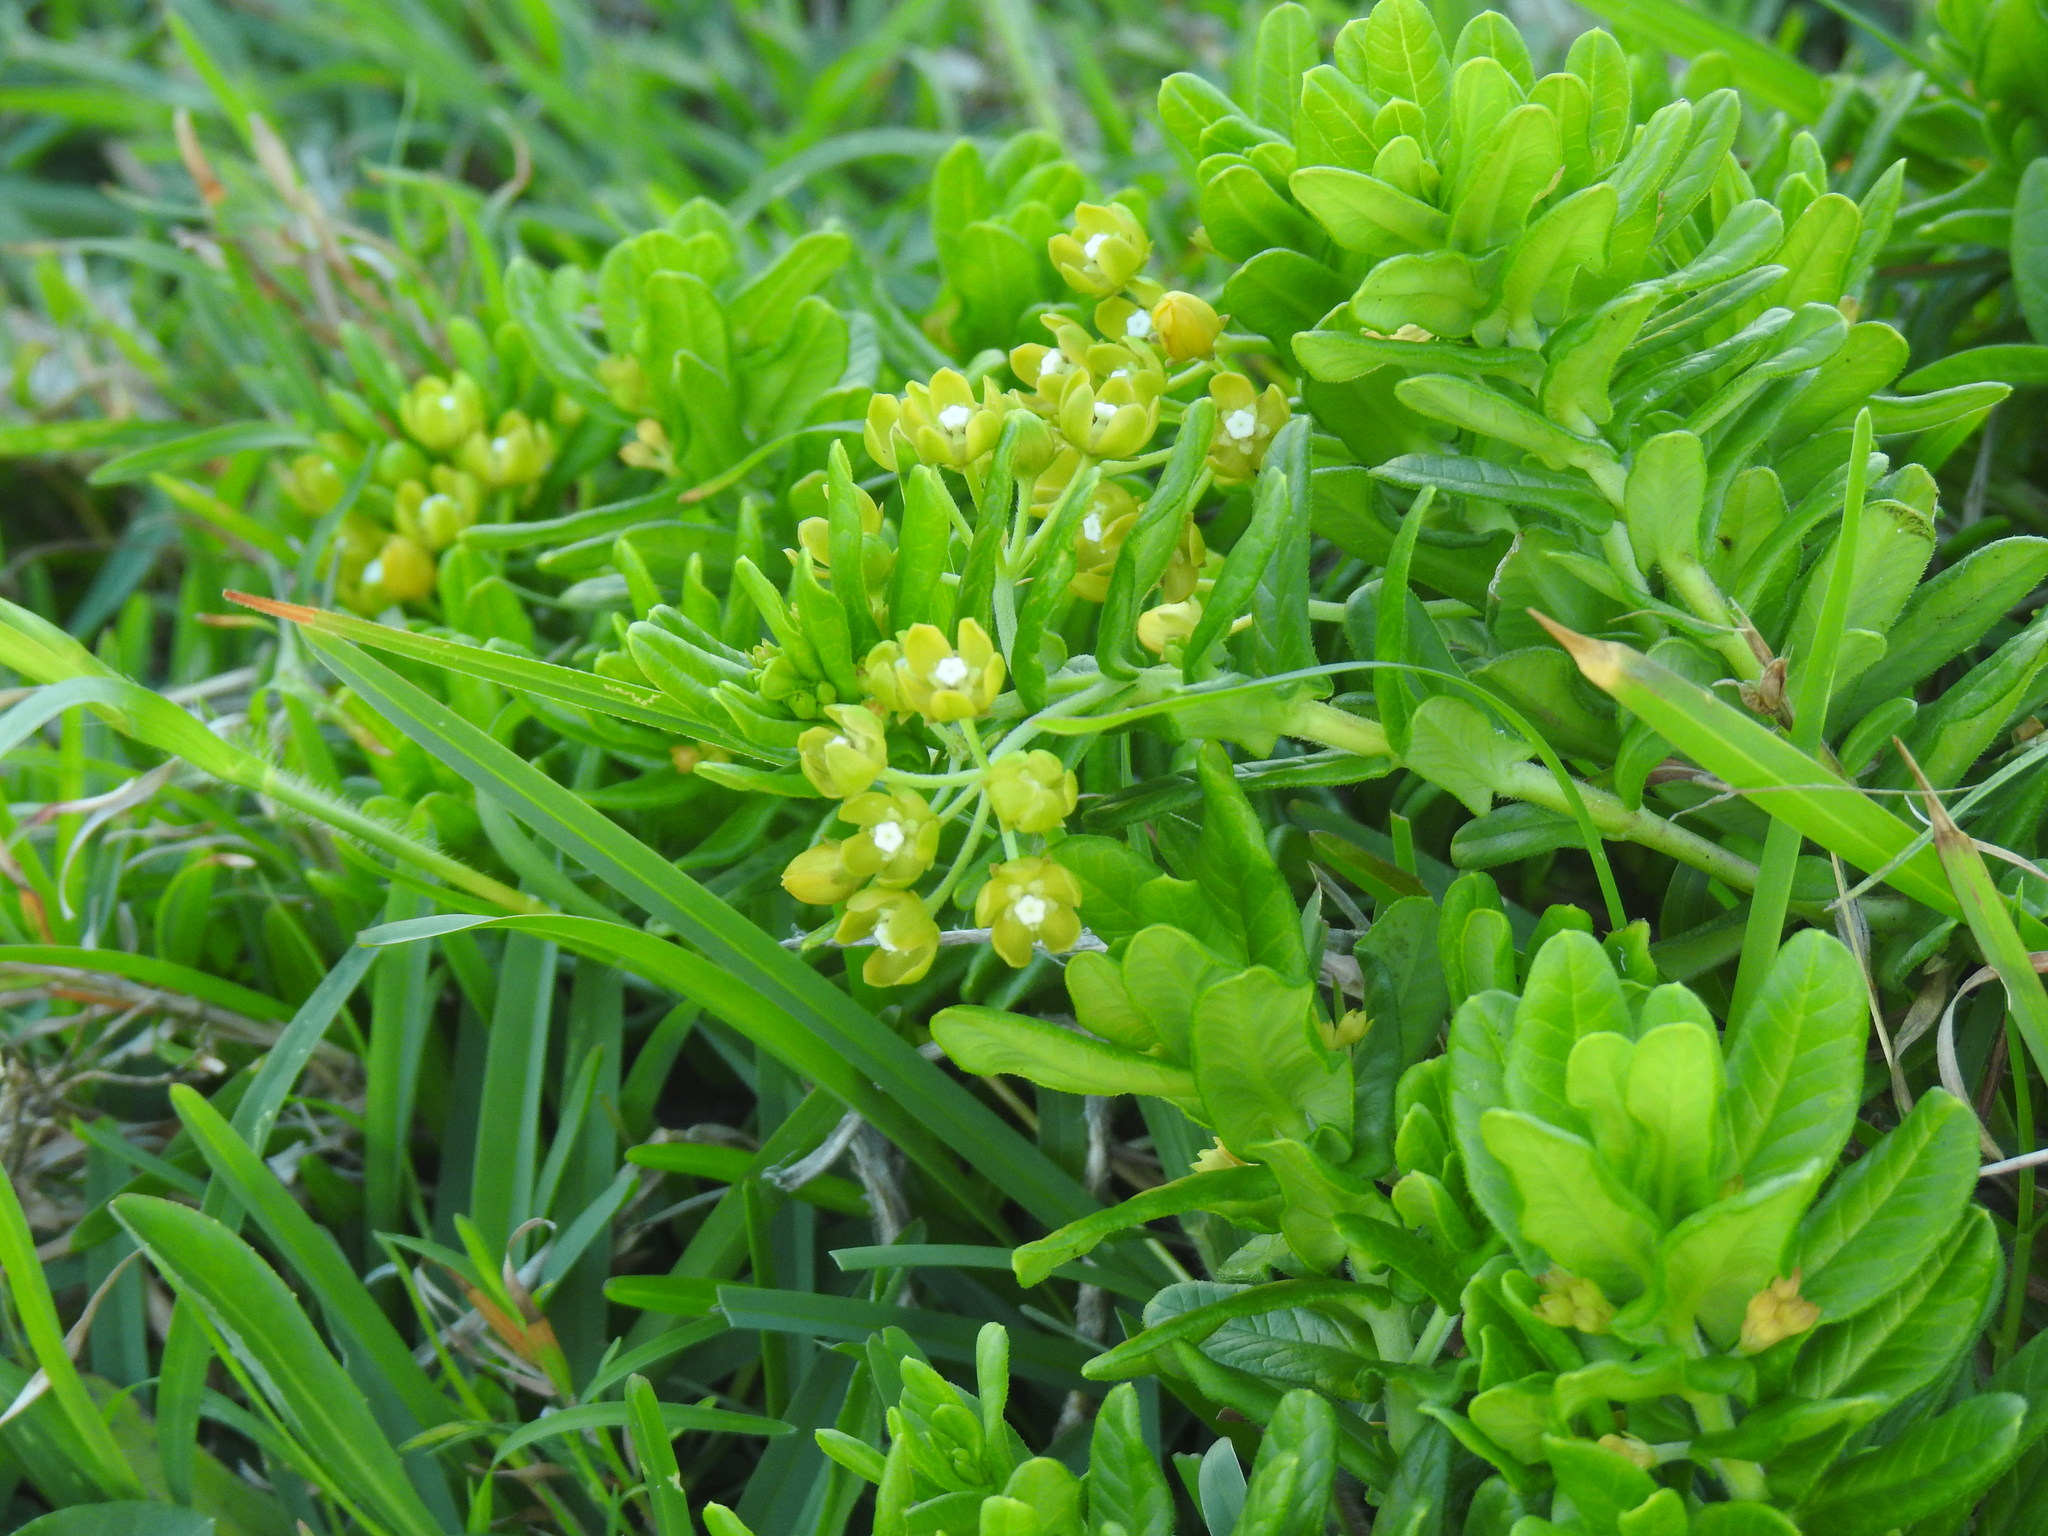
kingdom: Plantae
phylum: Tracheophyta
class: Magnoliopsida
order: Gentianales
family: Apocynaceae
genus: Schizoglossum
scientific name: Schizoglossum atropurpureum
